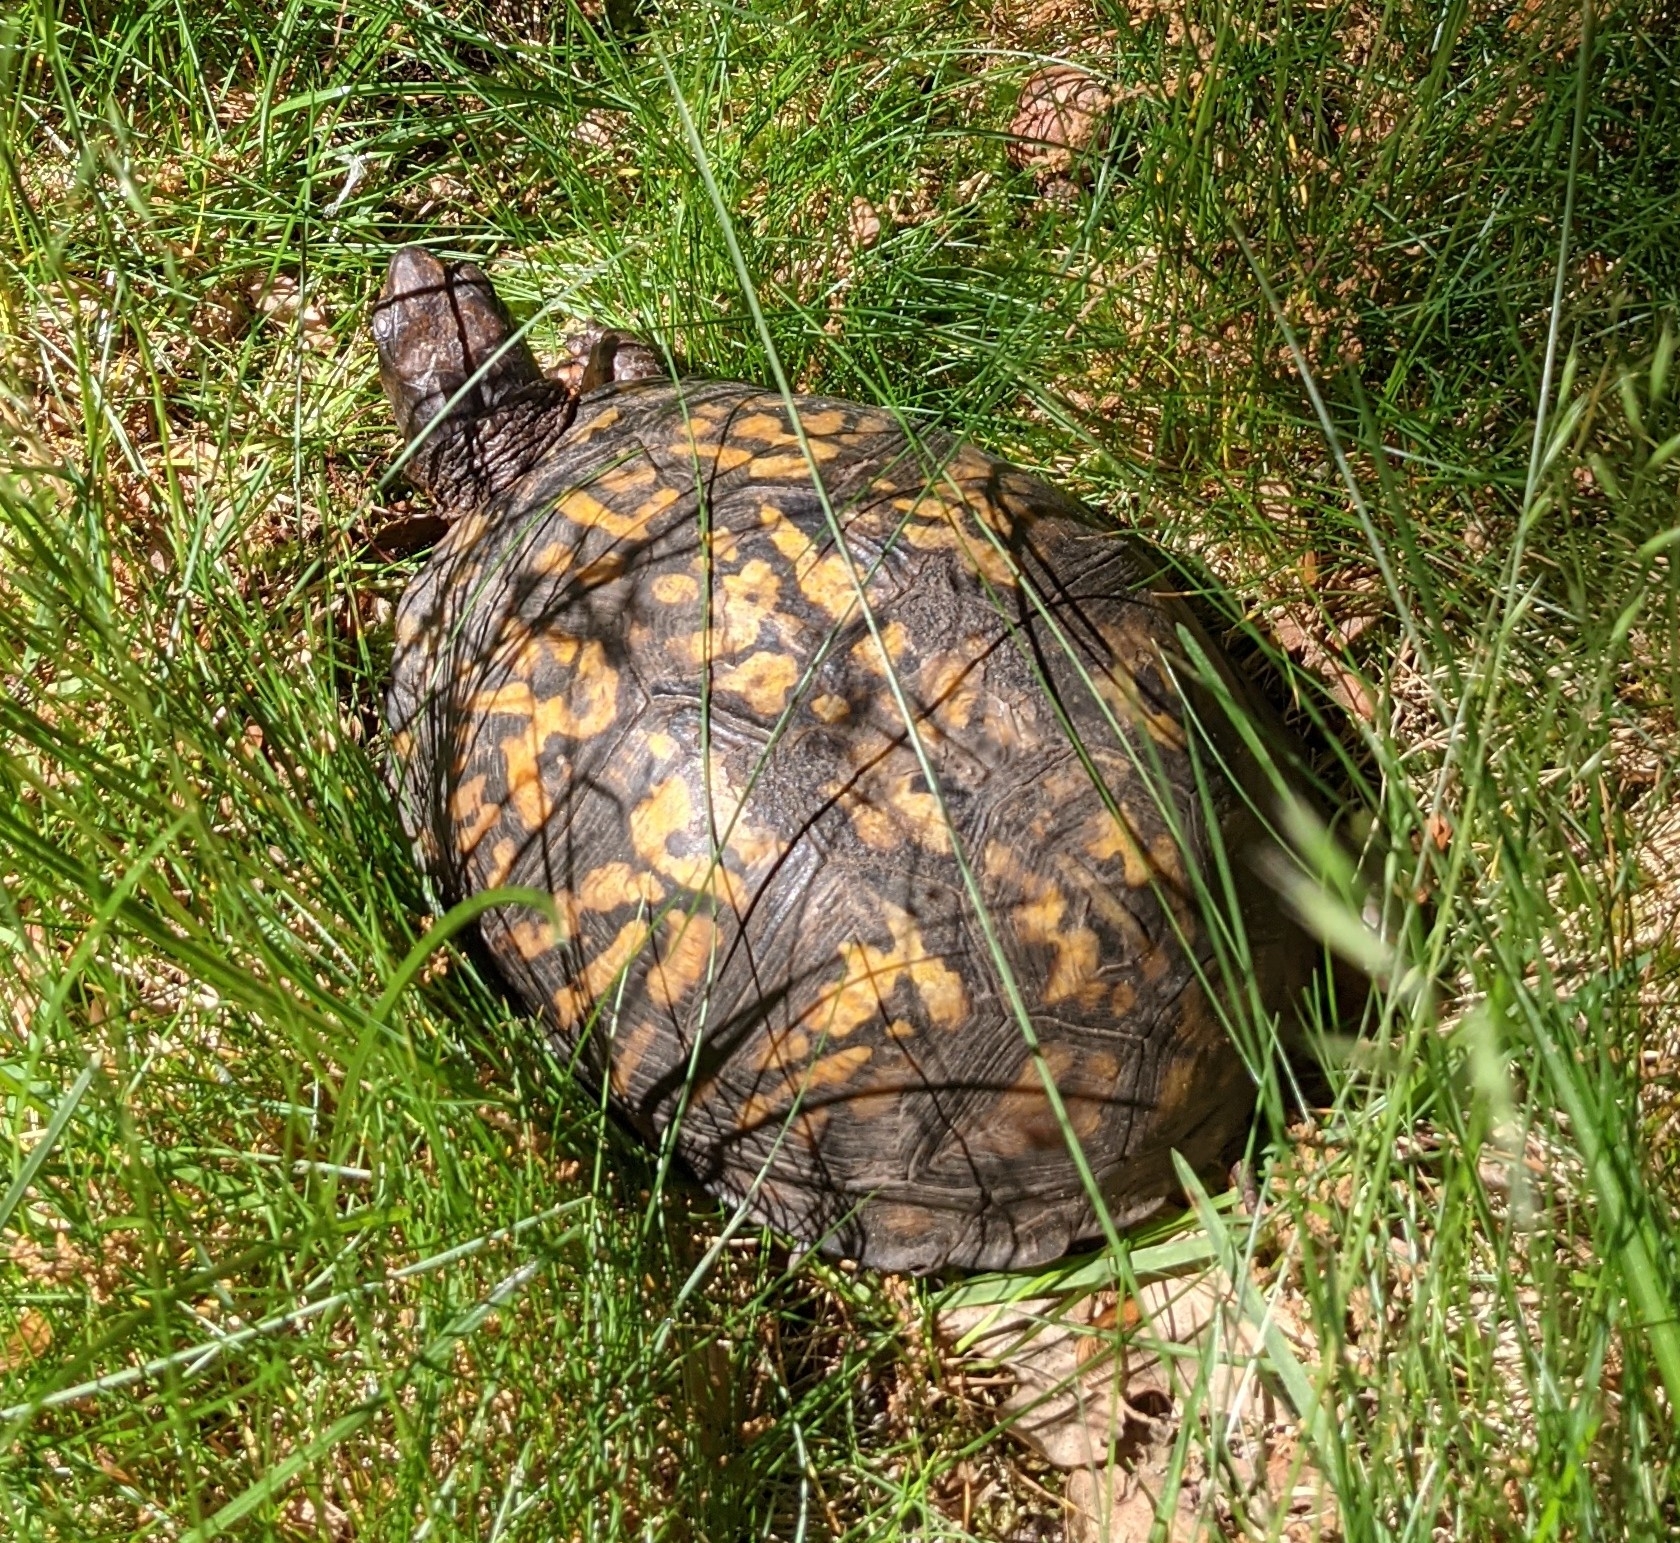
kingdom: Animalia
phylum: Chordata
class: Testudines
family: Emydidae
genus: Terrapene
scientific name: Terrapene carolina
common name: Common box turtle
